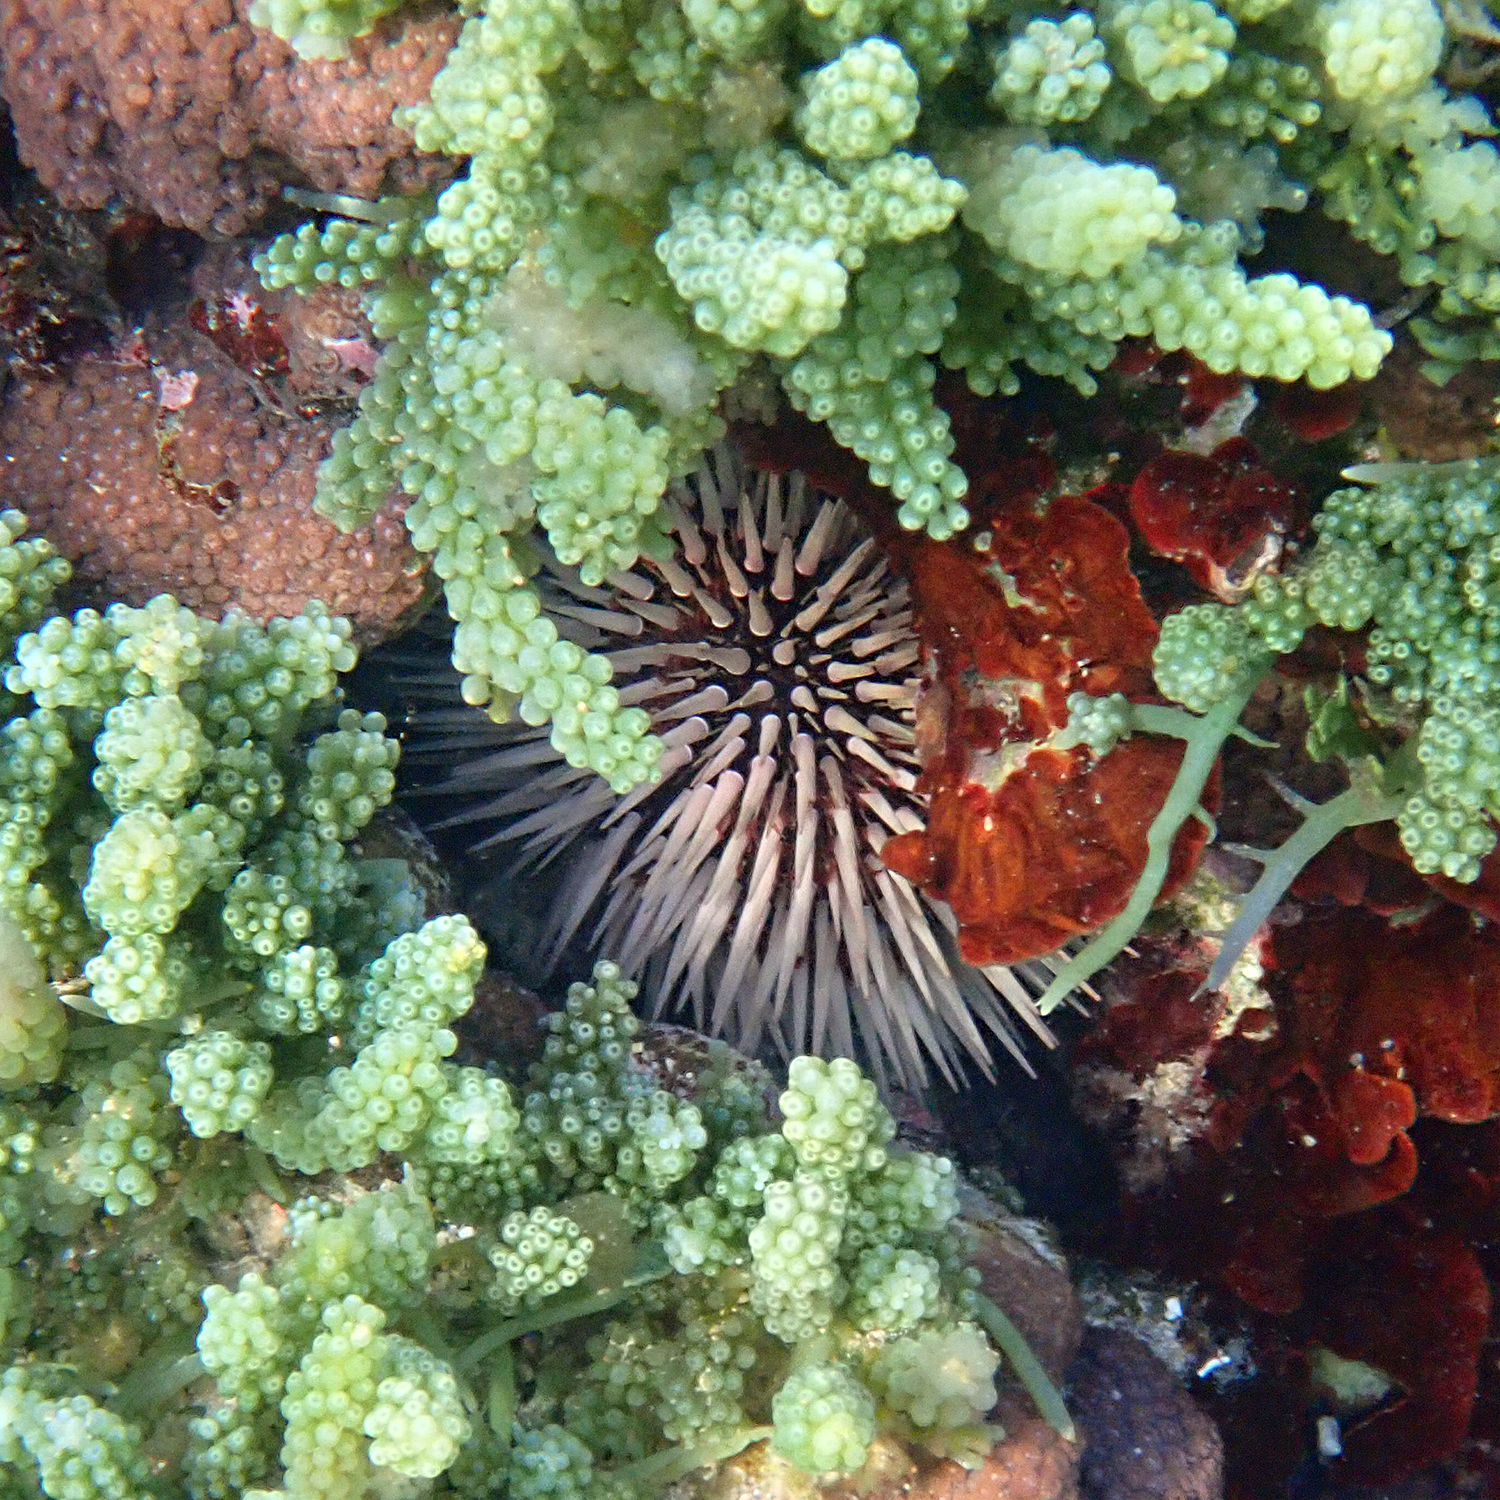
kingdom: Animalia
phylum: Echinodermata
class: Echinoidea
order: Camarodonta
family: Echinometridae
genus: Echinometra
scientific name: Echinometra mathaei
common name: Rock-boring urchin
